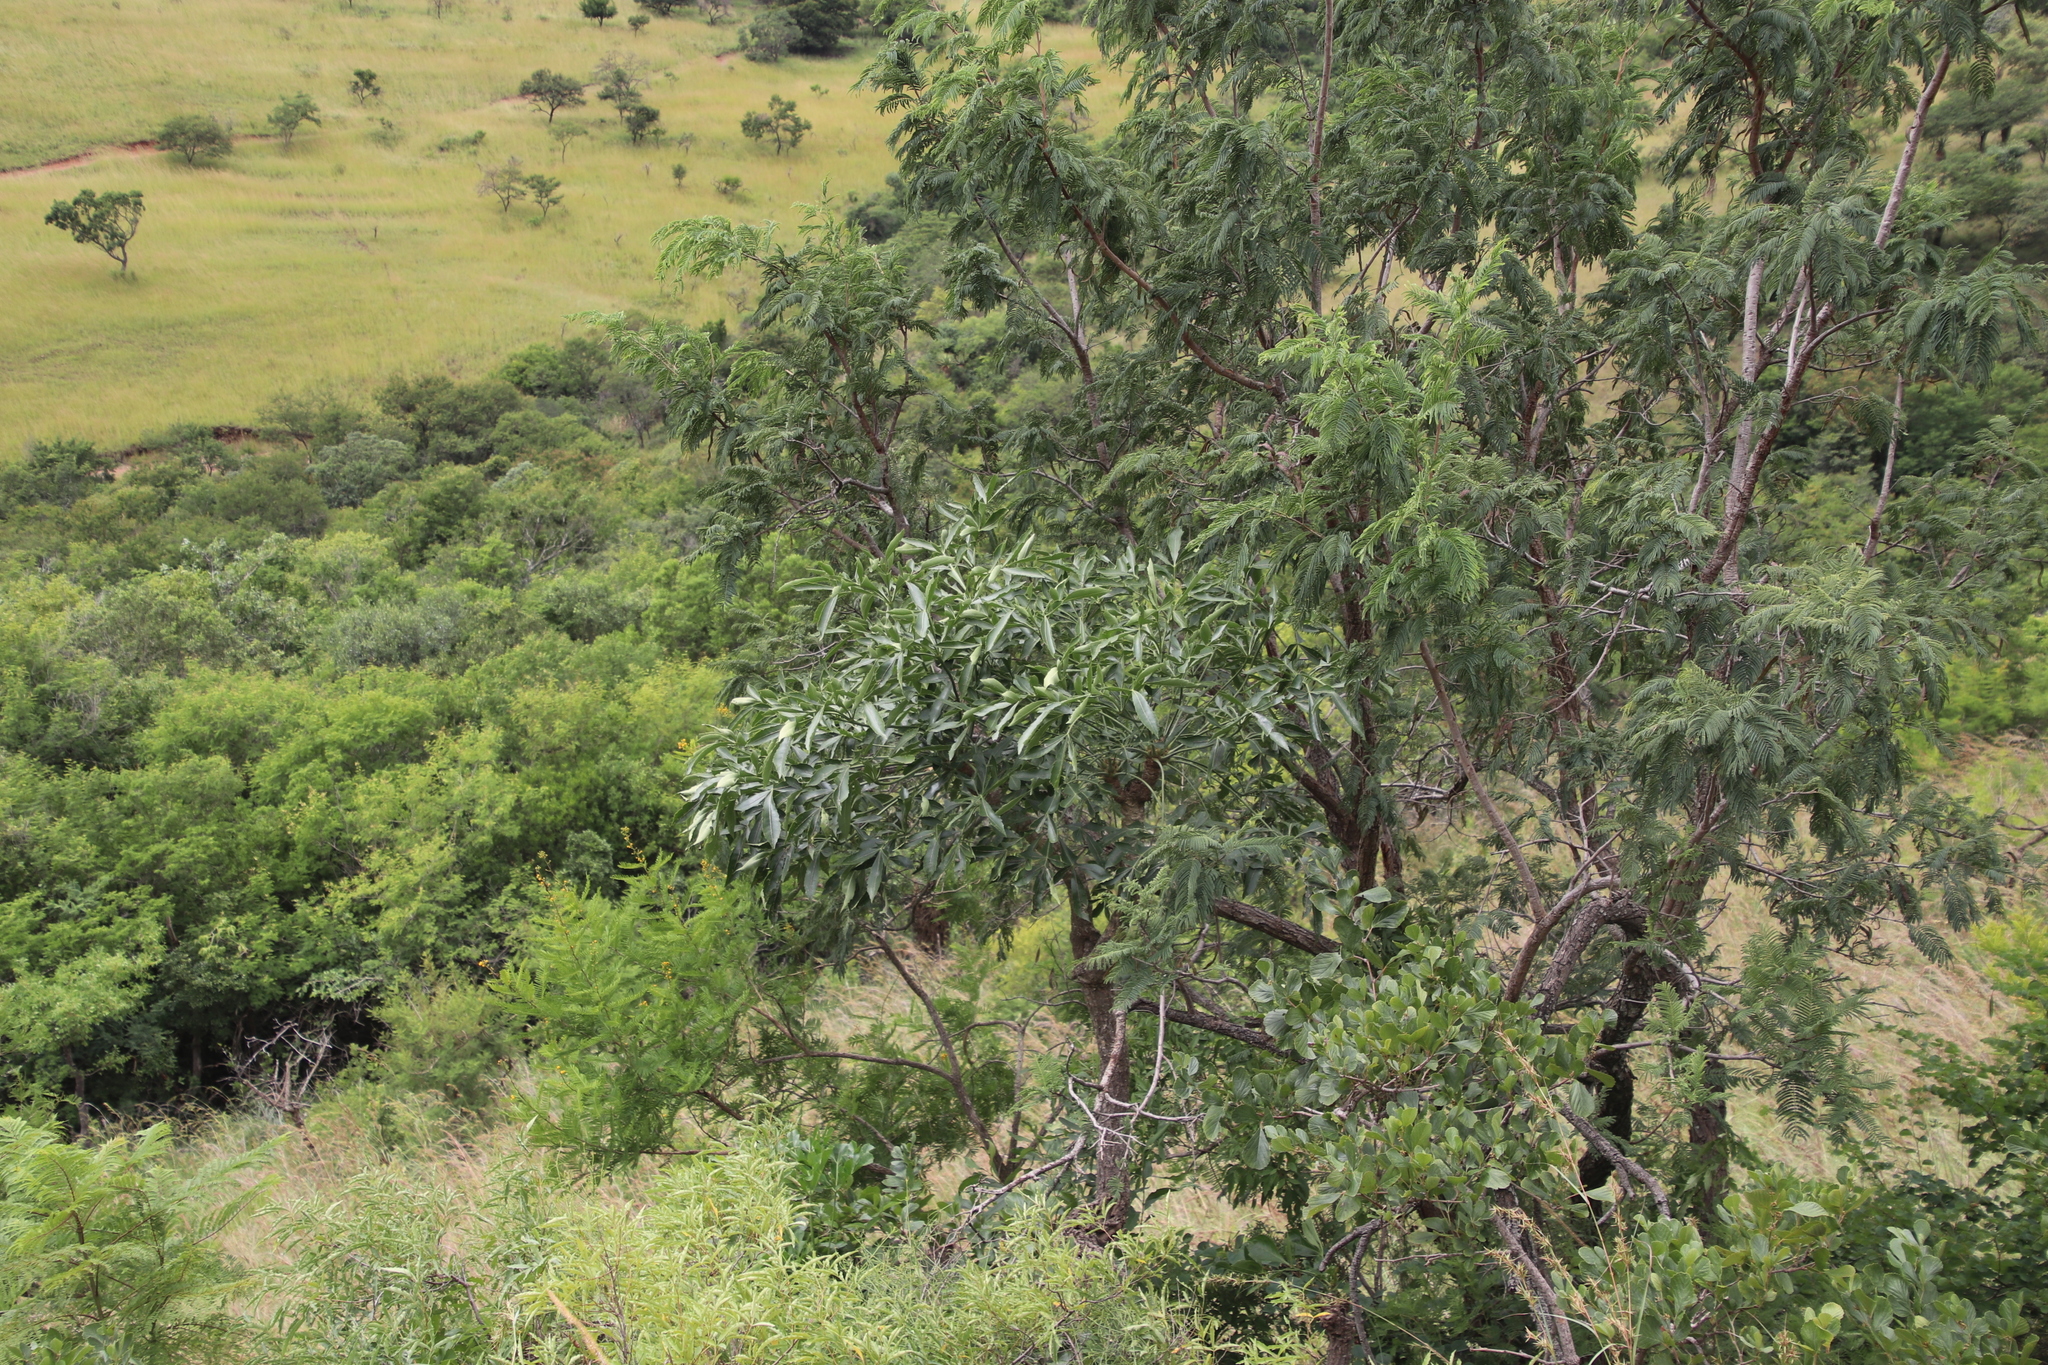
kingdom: Plantae
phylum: Tracheophyta
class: Magnoliopsida
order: Apiales
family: Araliaceae
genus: Cussonia
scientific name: Cussonia natalensis
